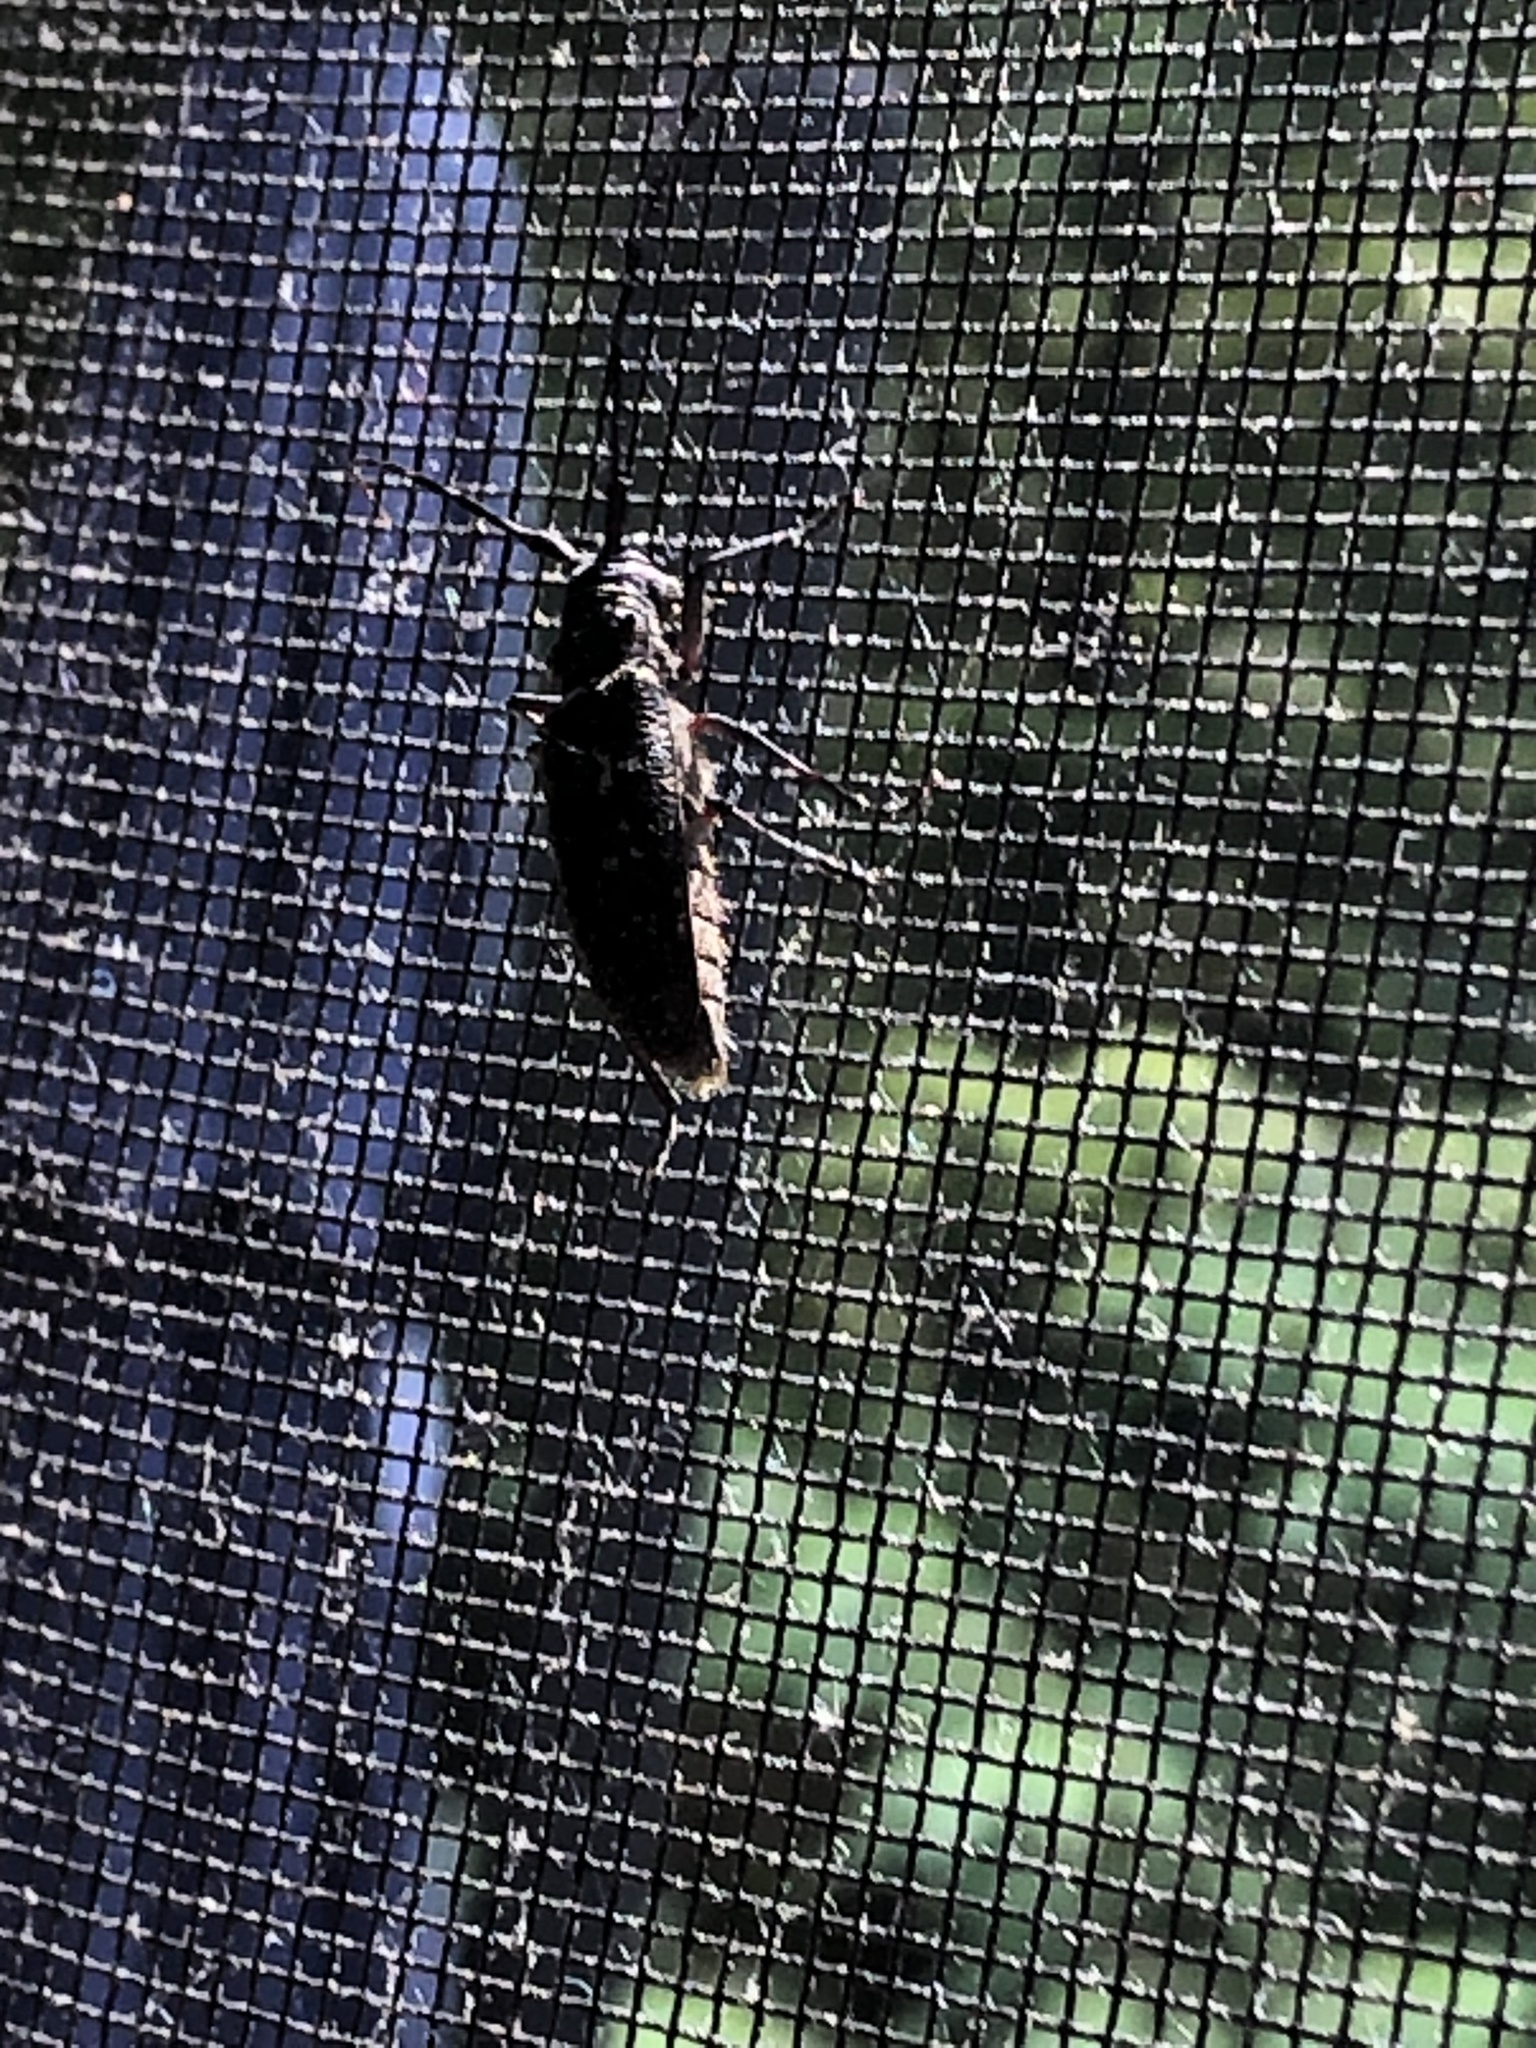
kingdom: Animalia
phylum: Arthropoda
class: Insecta
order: Coleoptera
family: Cerambycidae
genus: Monochamus
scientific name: Monochamus scutellatus
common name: White-spotted sawyer beetle
